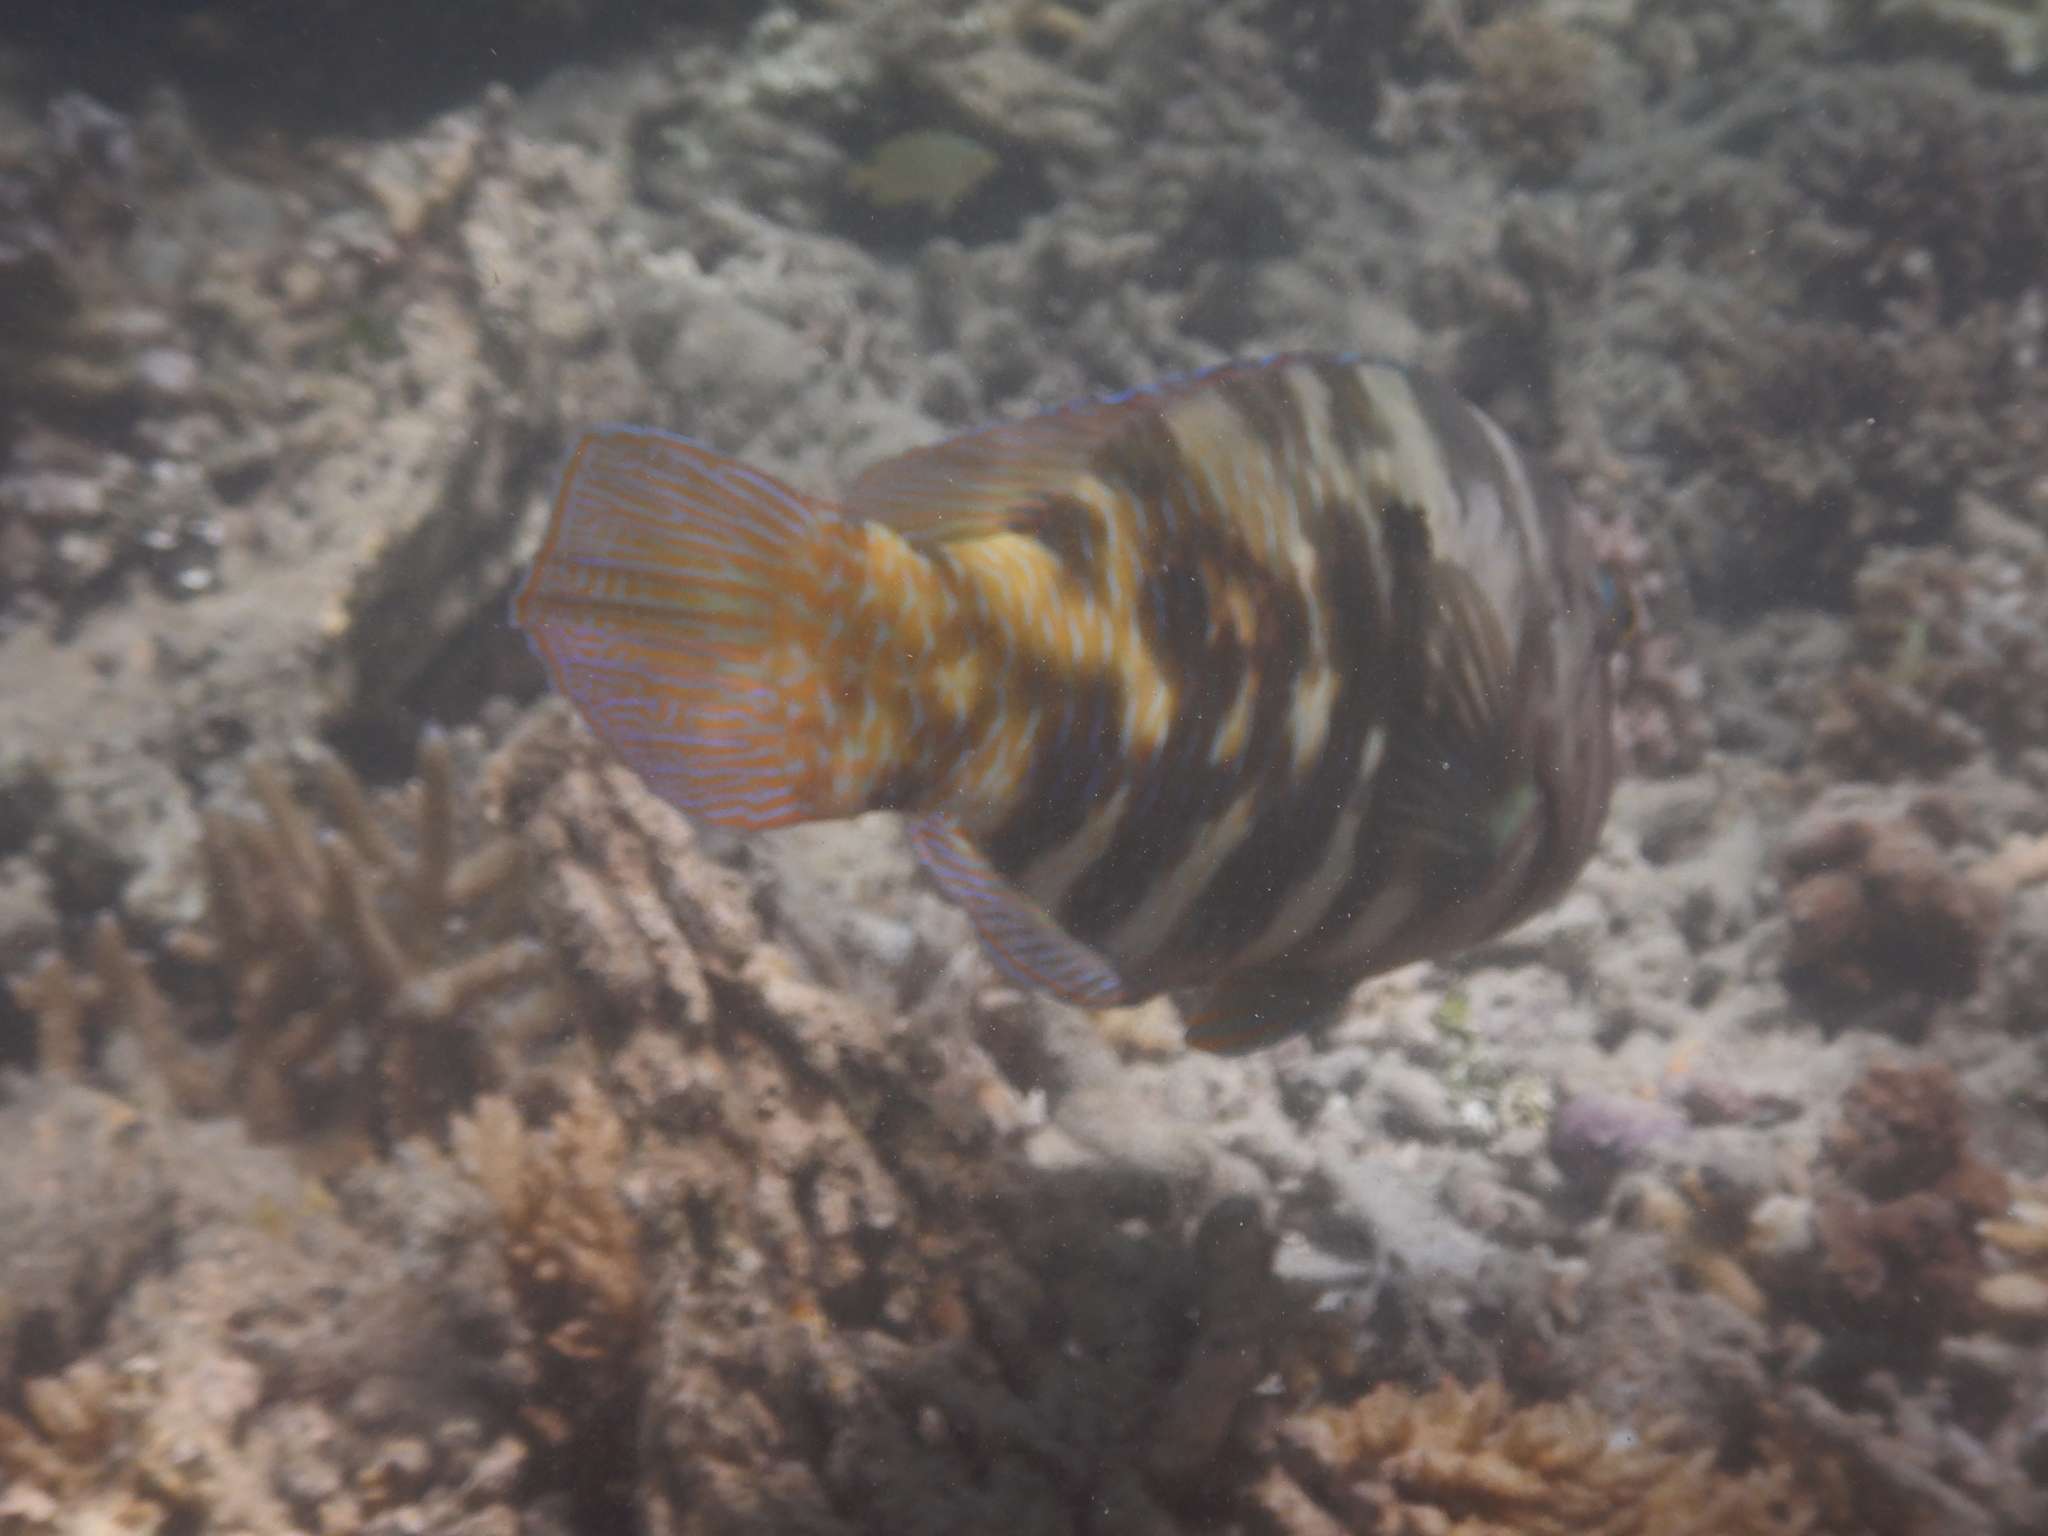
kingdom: Animalia
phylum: Chordata
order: Perciformes
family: Labridae
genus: Choerodon
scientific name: Choerodon graphicus
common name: Graphic tuskfish
